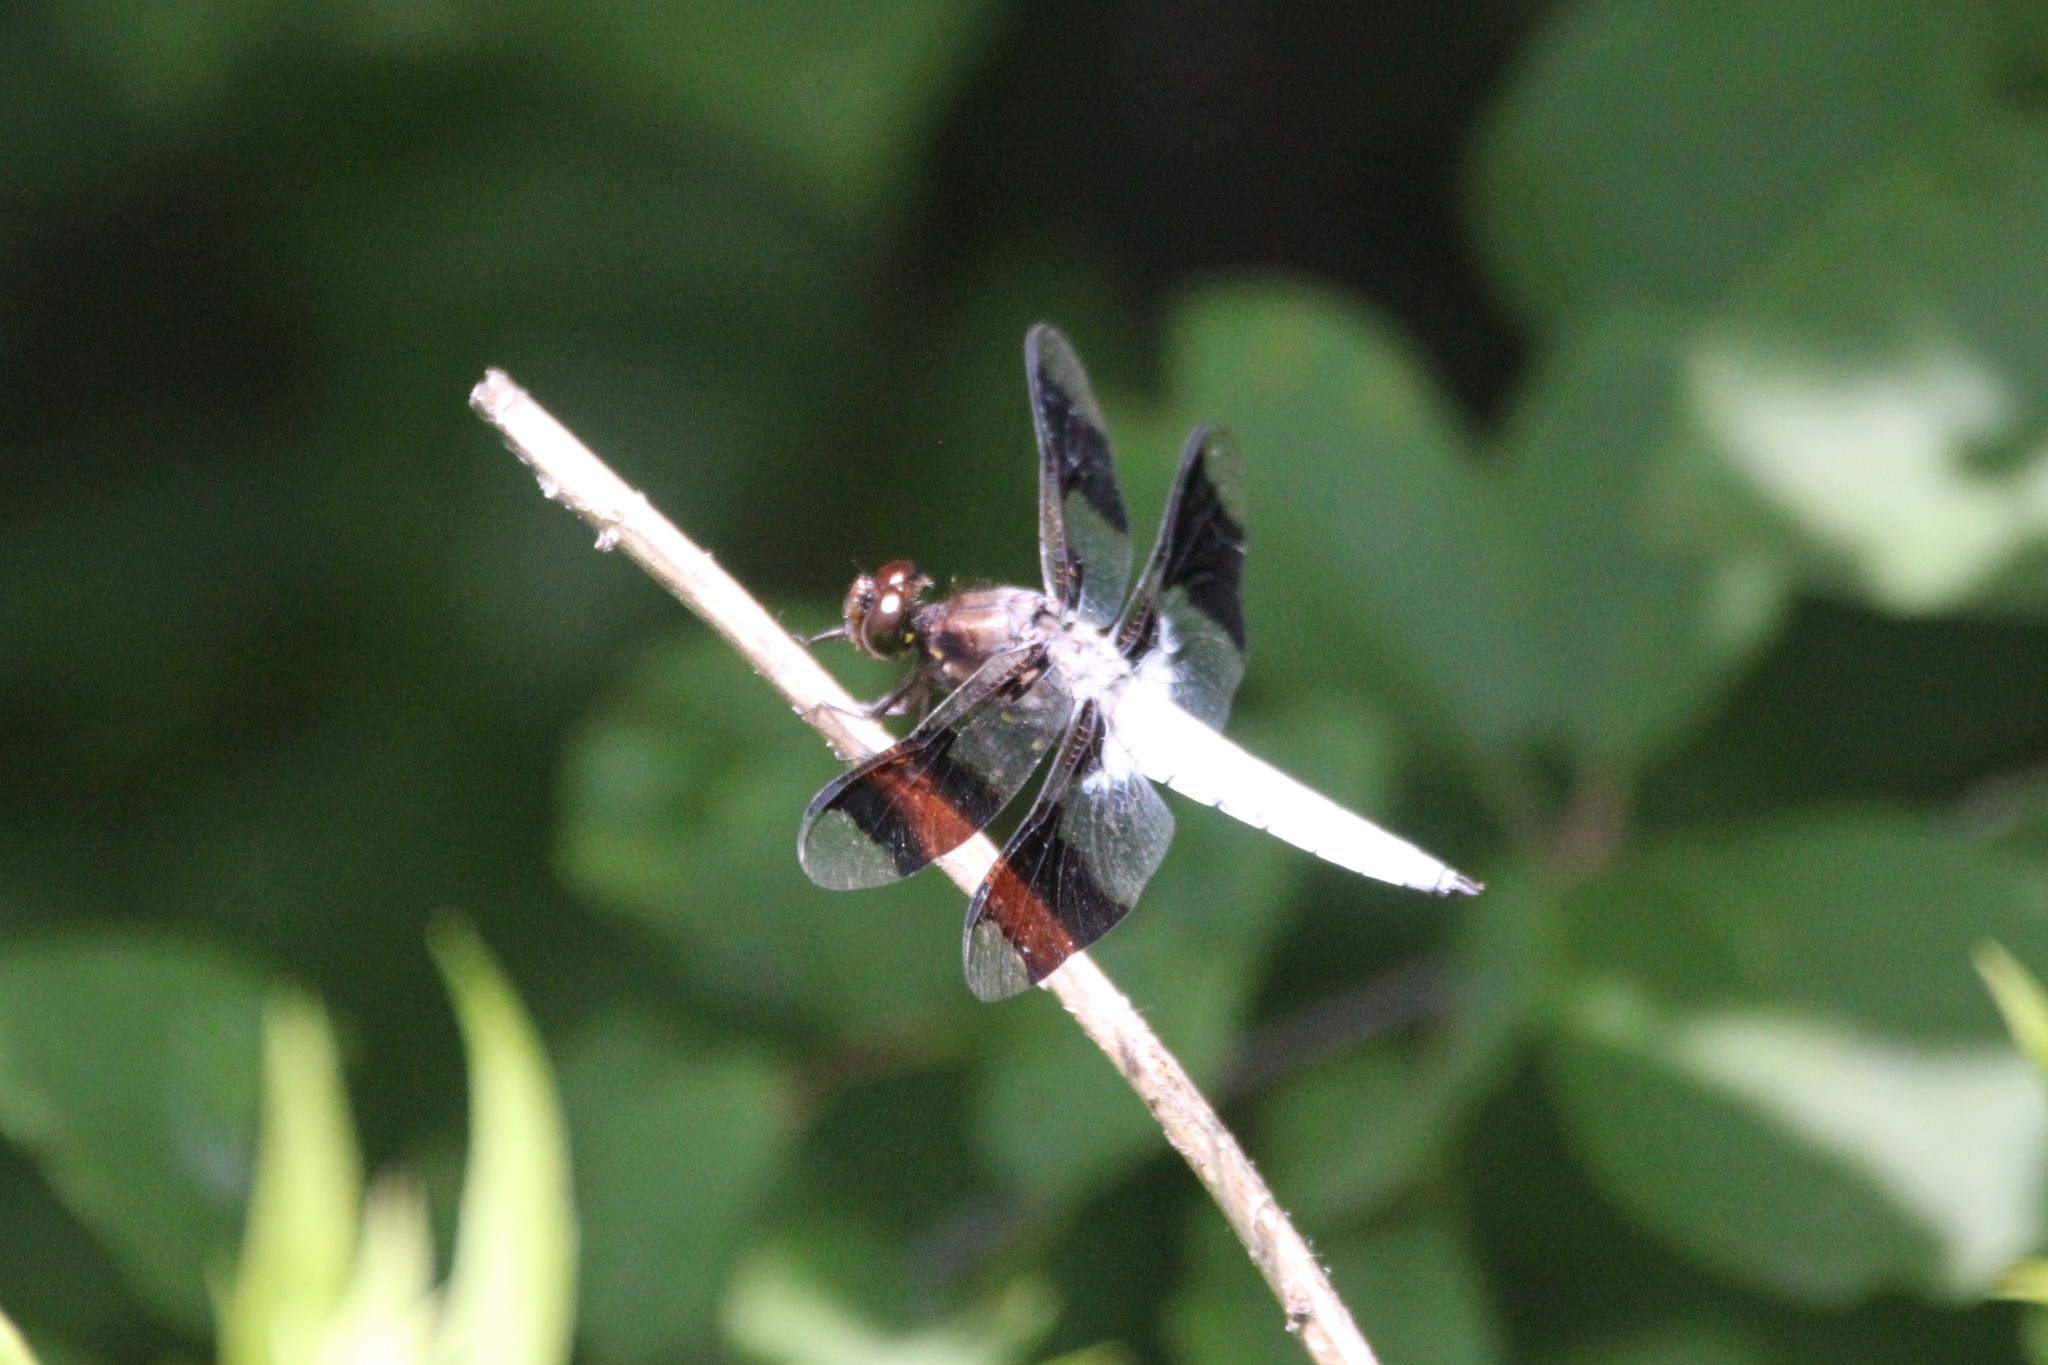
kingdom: Animalia
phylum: Arthropoda
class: Insecta
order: Odonata
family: Libellulidae
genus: Plathemis
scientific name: Plathemis lydia
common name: Common whitetail
